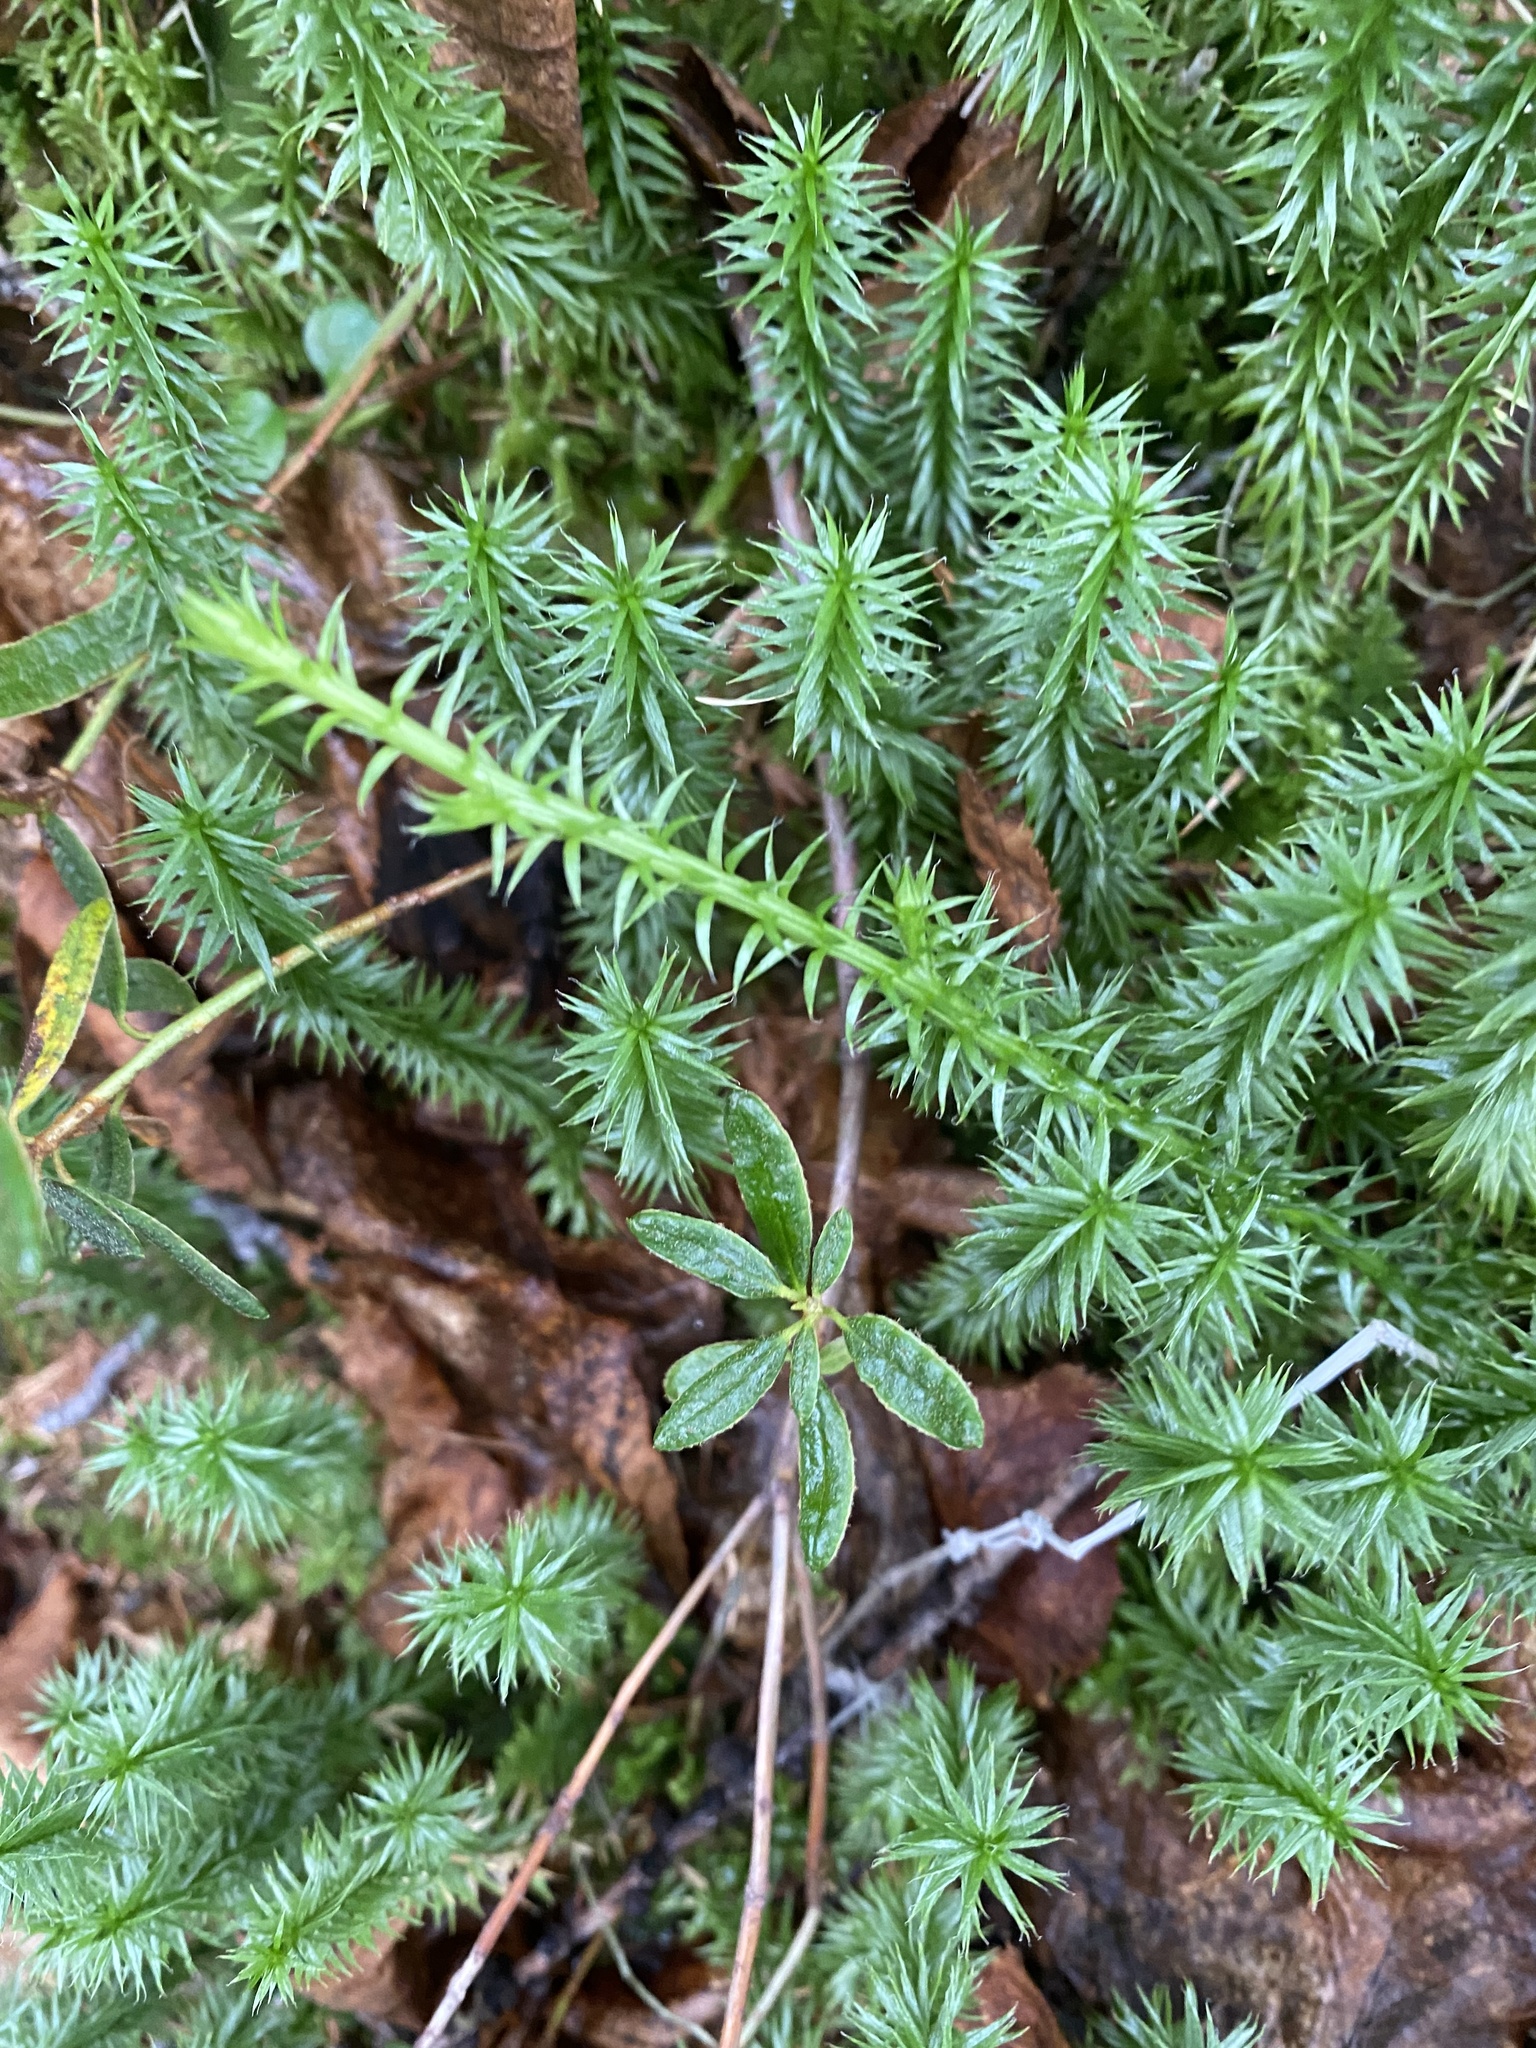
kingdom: Plantae
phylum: Tracheophyta
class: Lycopodiopsida
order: Lycopodiales
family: Lycopodiaceae
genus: Spinulum
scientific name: Spinulum annotinum
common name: Interrupted club-moss
